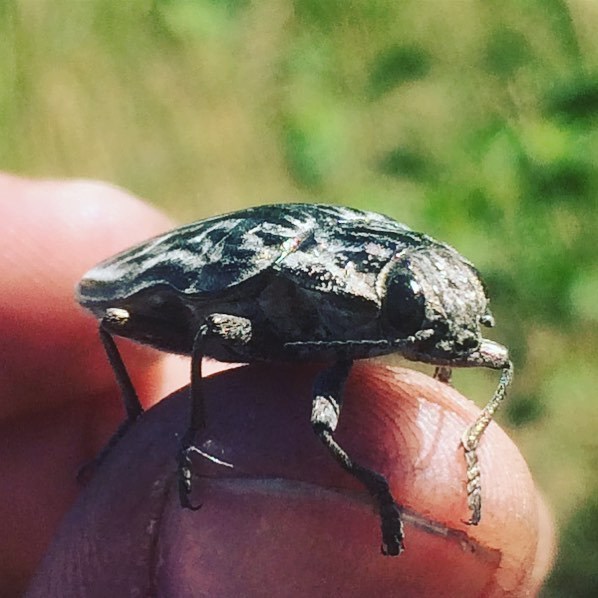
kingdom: Animalia
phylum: Arthropoda
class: Insecta
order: Coleoptera
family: Buprestidae
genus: Chalcophora
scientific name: Chalcophora mariana
